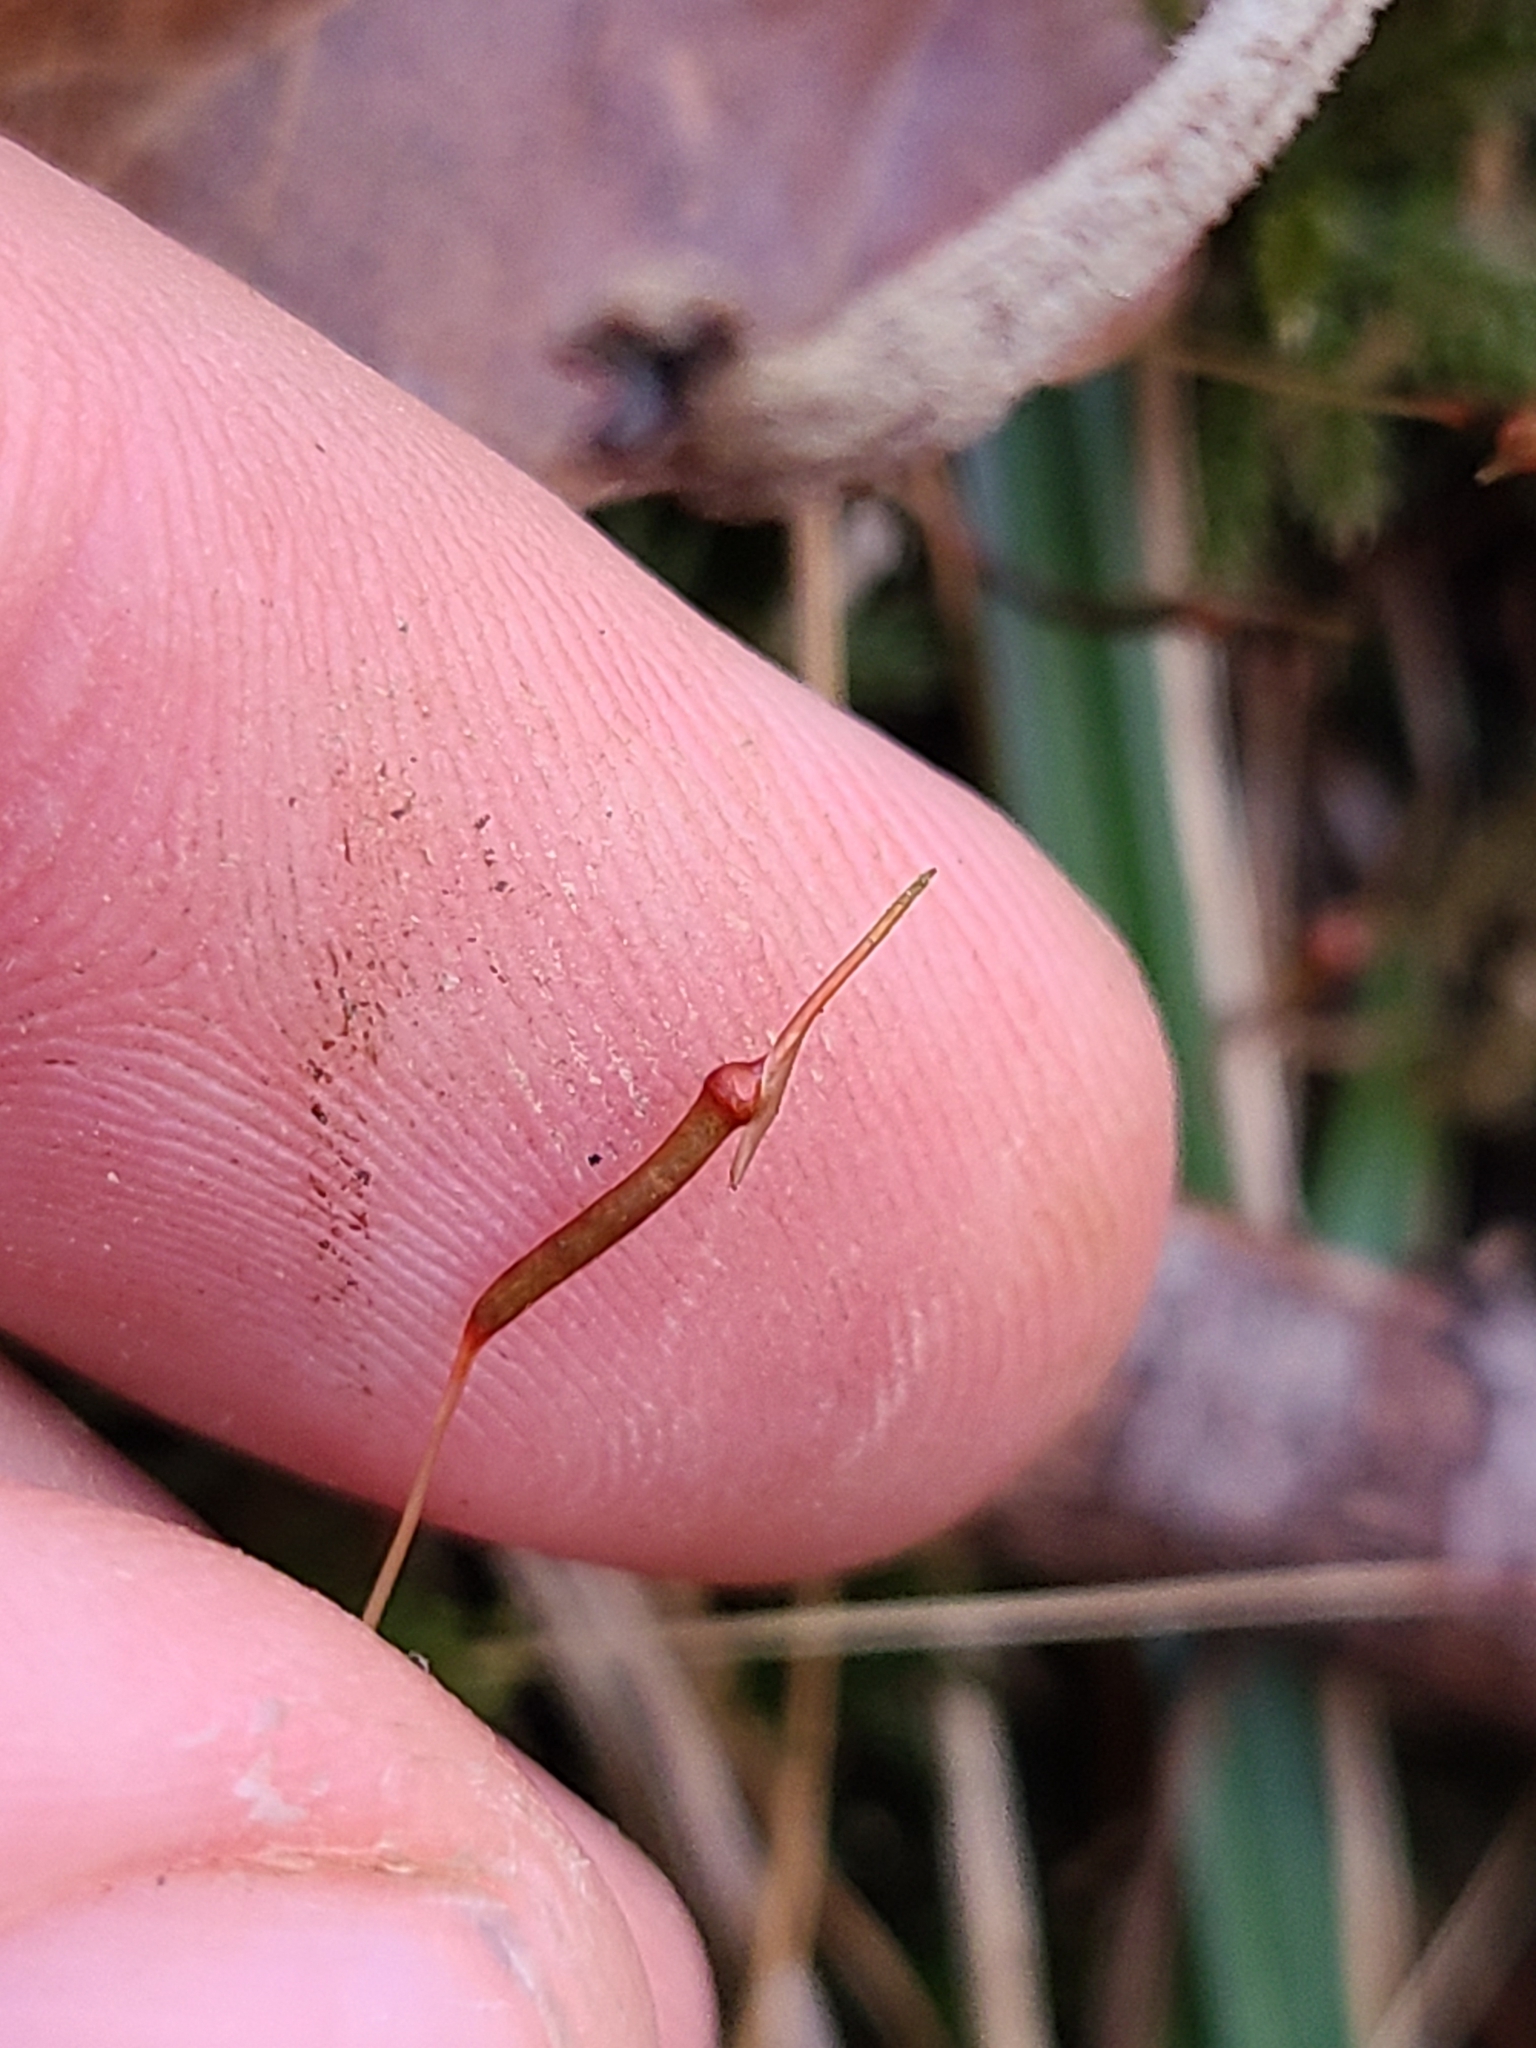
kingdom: Plantae
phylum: Bryophyta
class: Polytrichopsida
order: Polytrichales
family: Polytrichaceae
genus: Atrichum
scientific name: Atrichum angustatum
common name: Lesser smoothcap
